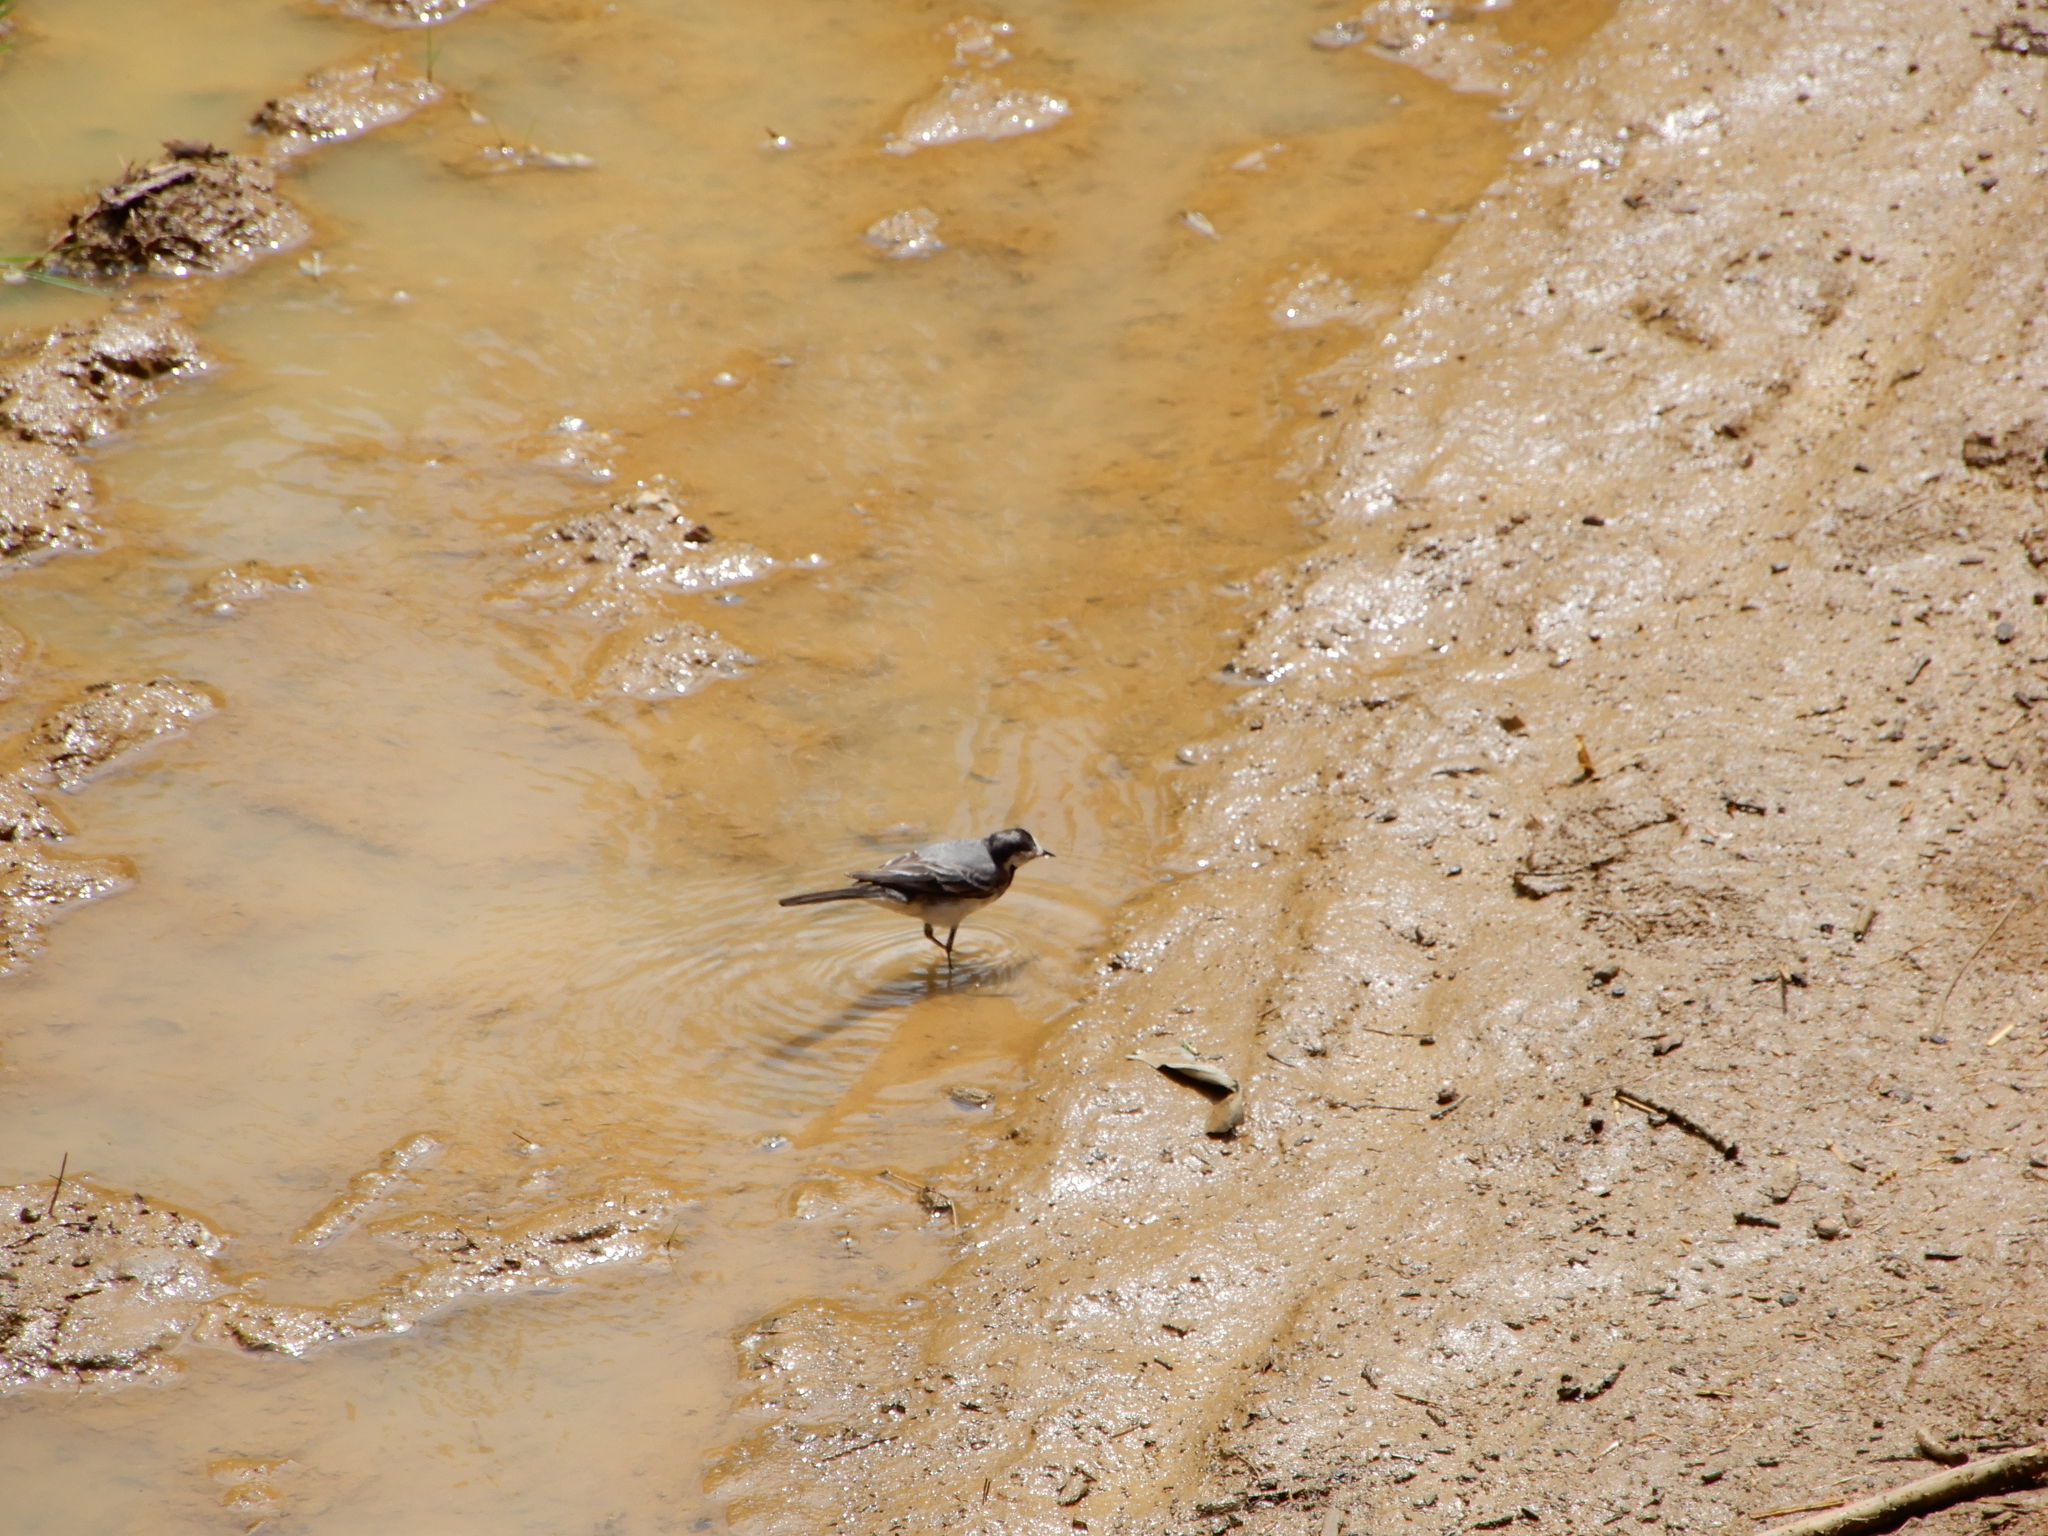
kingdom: Animalia
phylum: Chordata
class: Aves
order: Passeriformes
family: Motacillidae
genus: Motacilla
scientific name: Motacilla alba
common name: White wagtail
